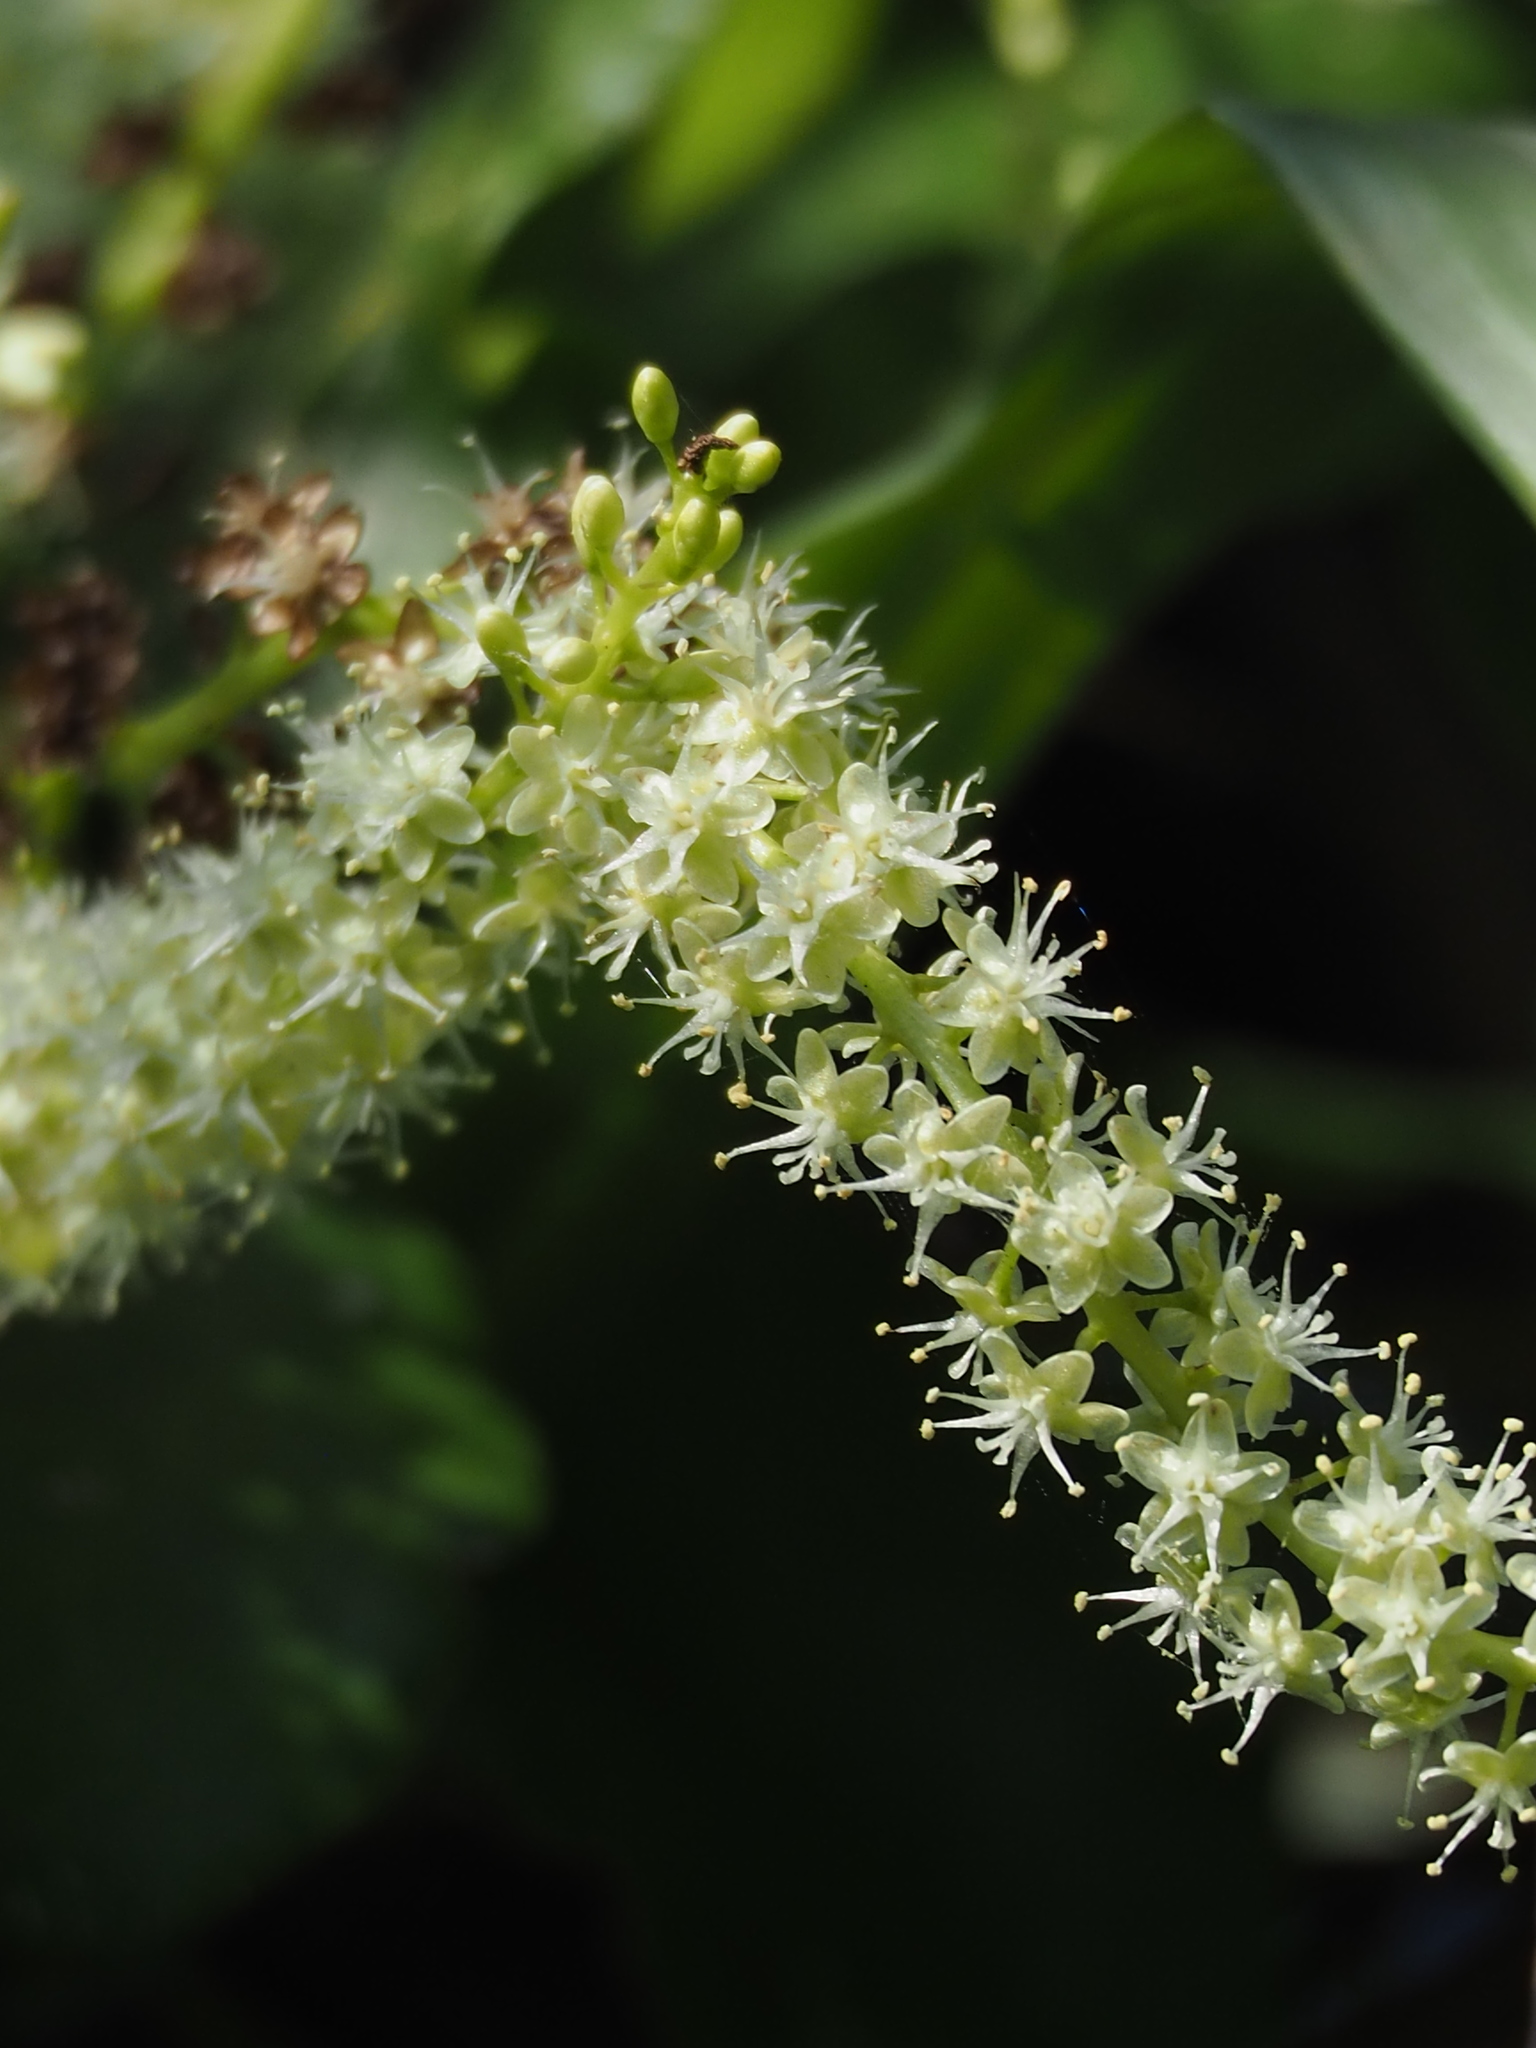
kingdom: Plantae
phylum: Tracheophyta
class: Magnoliopsida
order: Caryophyllales
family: Basellaceae
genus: Anredera
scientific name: Anredera cordifolia
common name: Heartleaf madeiravine
